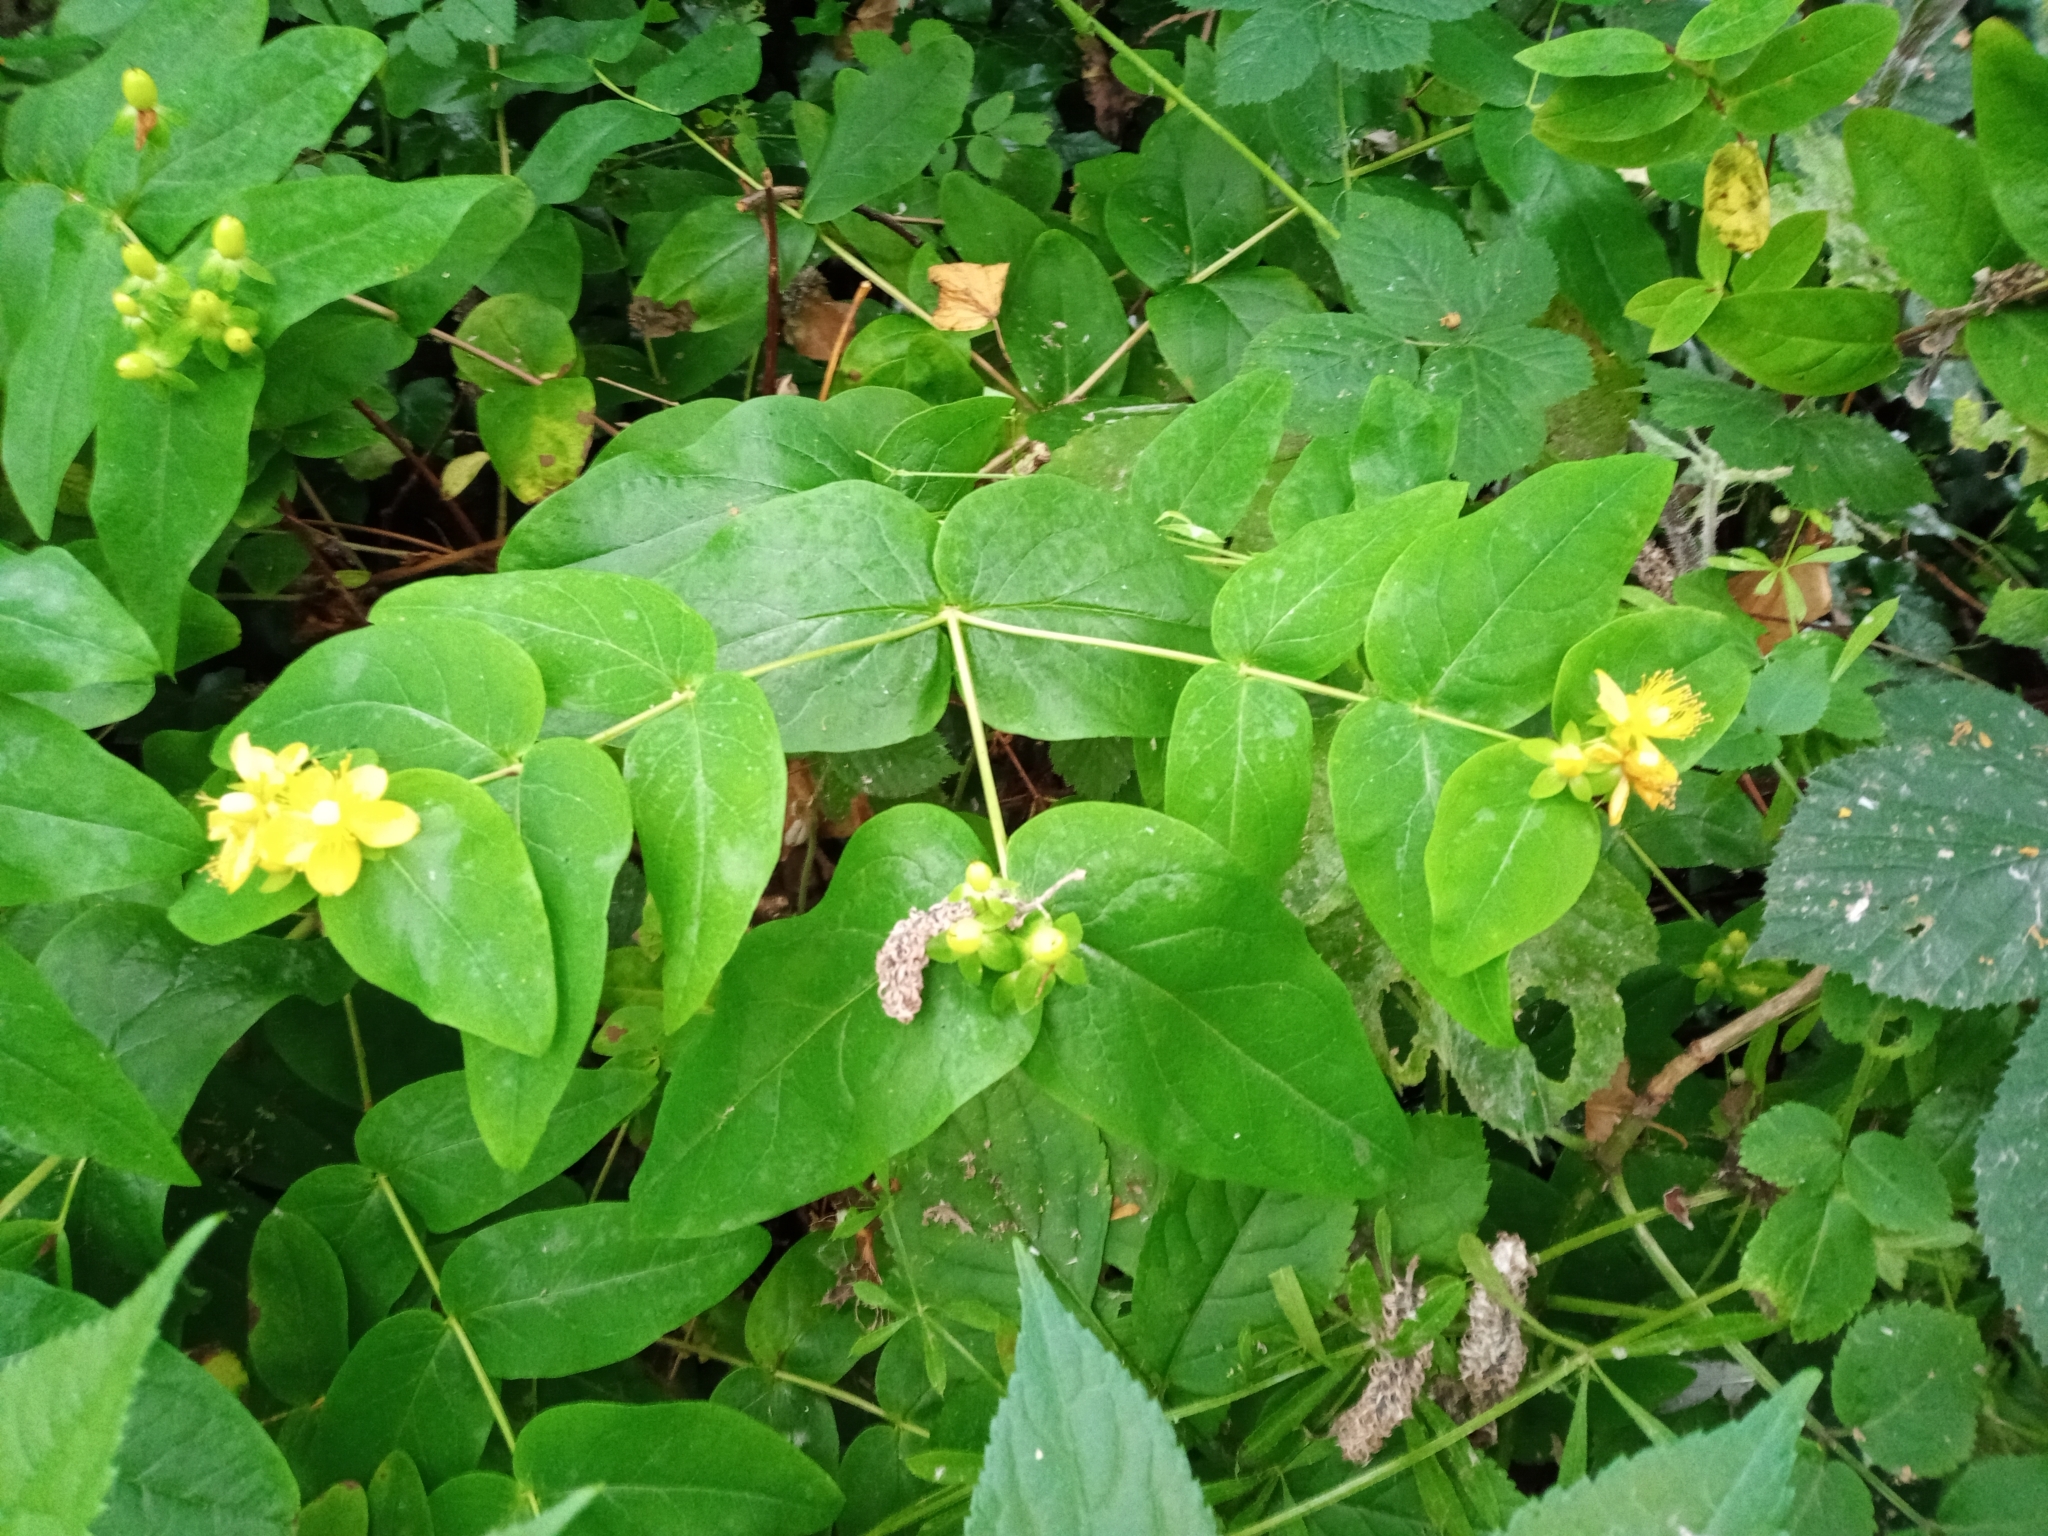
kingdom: Plantae
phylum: Tracheophyta
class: Magnoliopsida
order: Malpighiales
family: Hypericaceae
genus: Hypericum
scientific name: Hypericum androsaemum
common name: Sweet-amber
